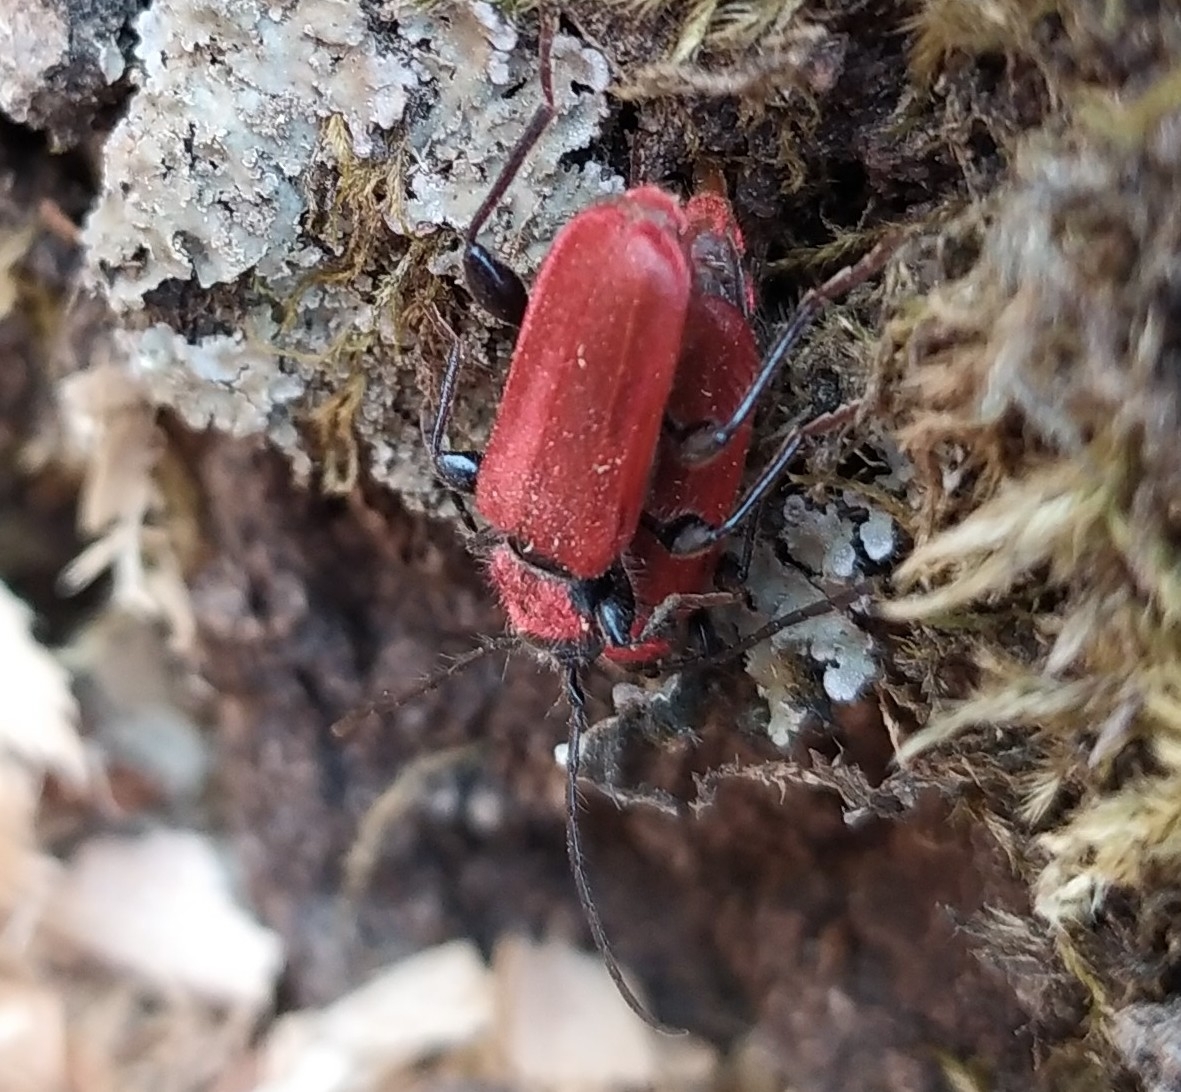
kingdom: Animalia
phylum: Arthropoda
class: Insecta
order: Coleoptera
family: Cerambycidae
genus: Pyrrhidium
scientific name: Pyrrhidium sanguineum
